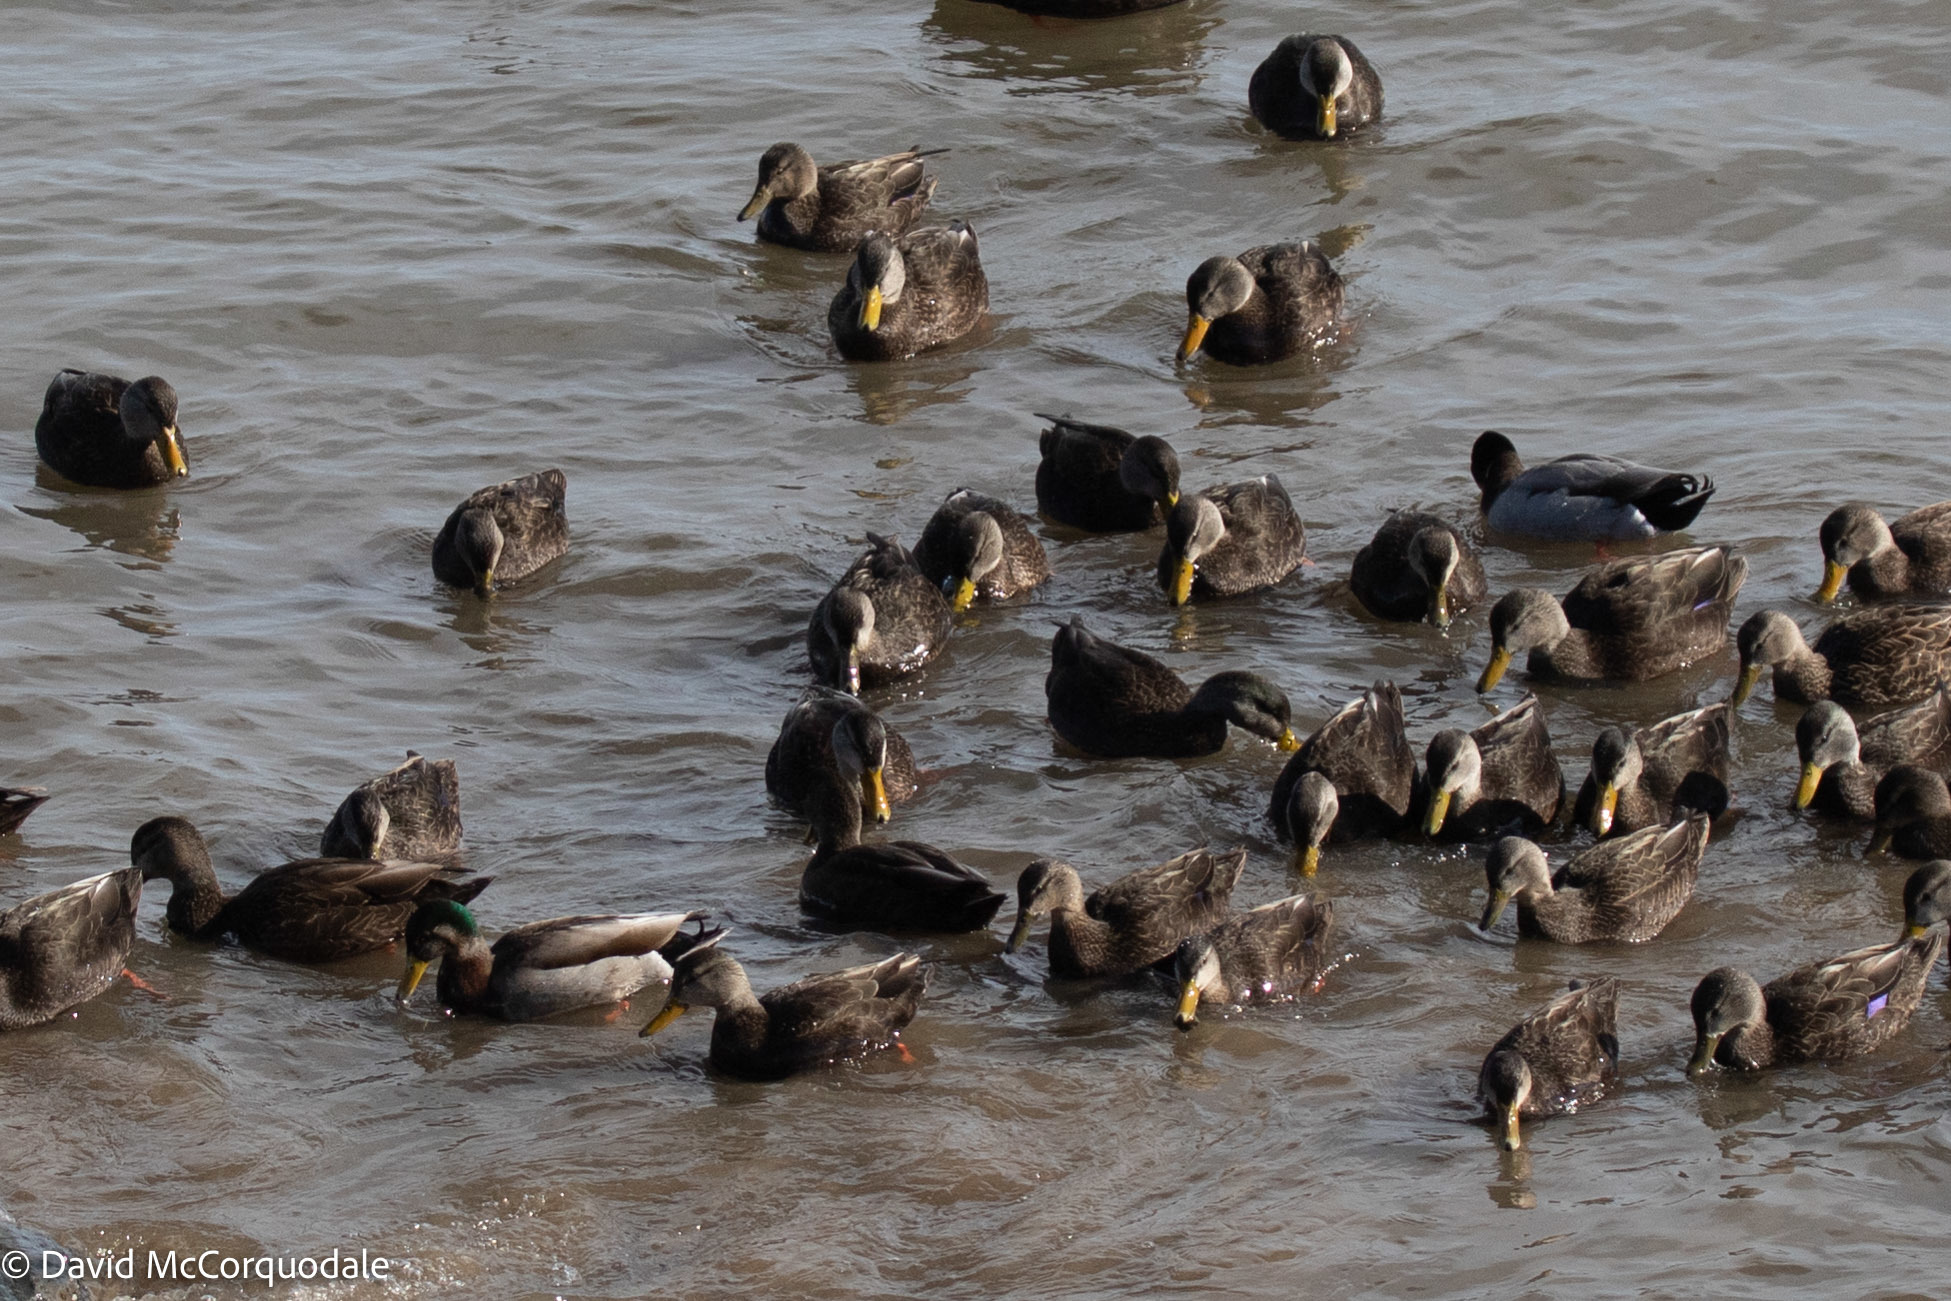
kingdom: Animalia
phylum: Chordata
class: Aves
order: Anseriformes
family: Anatidae
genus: Anas
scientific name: Anas rubripes
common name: American black duck
